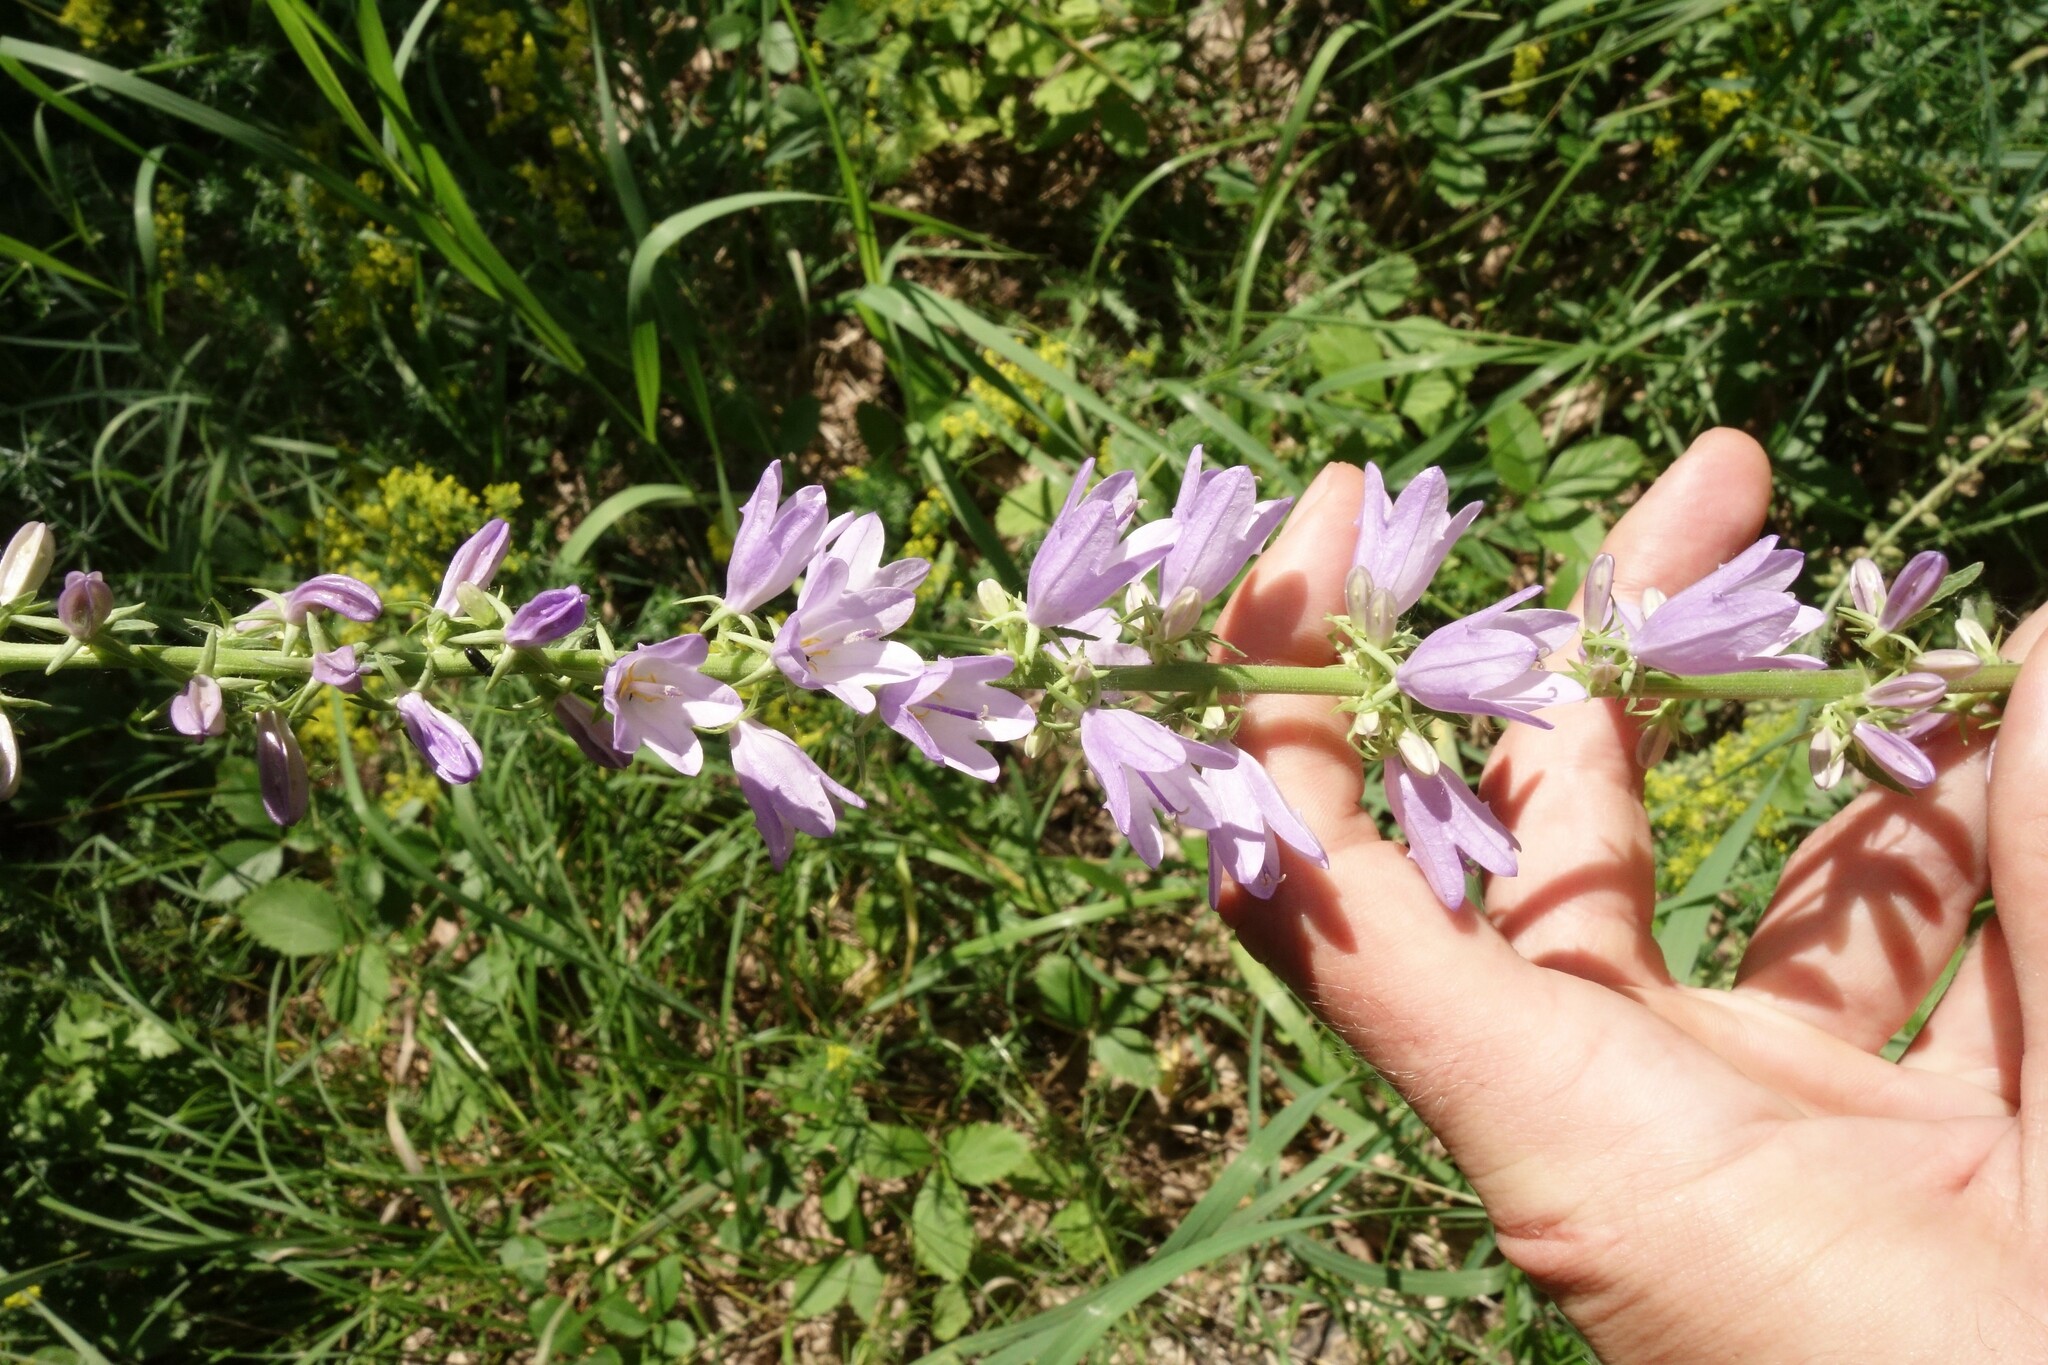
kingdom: Plantae
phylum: Tracheophyta
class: Magnoliopsida
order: Asterales
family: Campanulaceae
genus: Campanula
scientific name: Campanula bononiensis
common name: Pale bellflower
